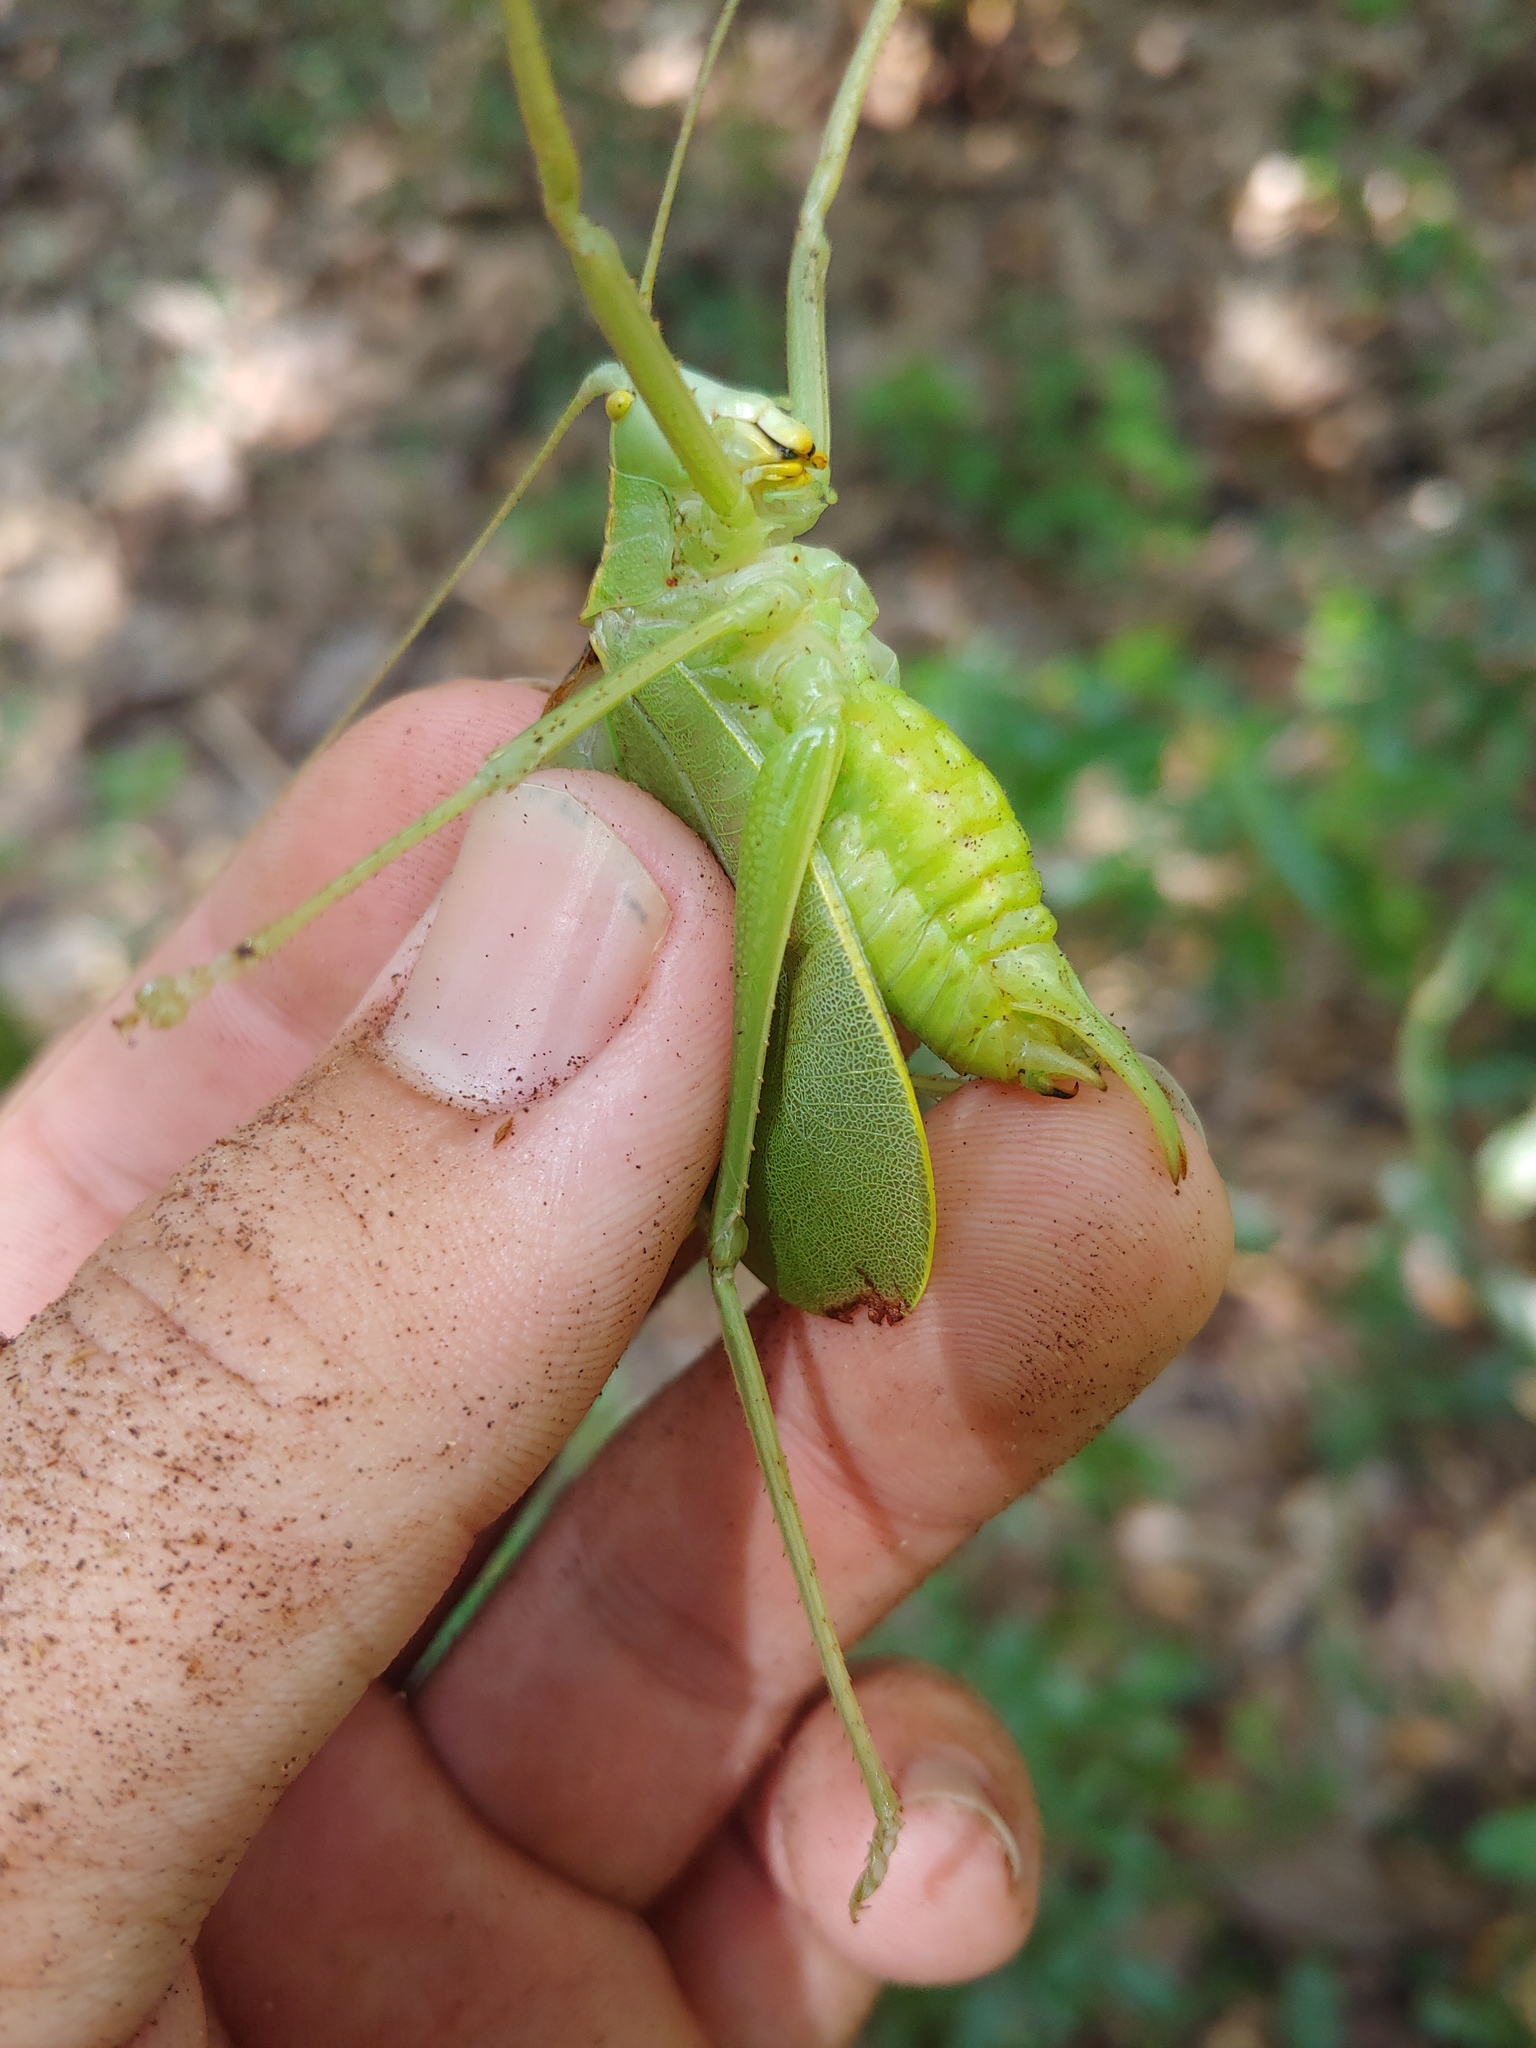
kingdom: Animalia
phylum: Arthropoda
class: Insecta
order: Orthoptera
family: Tettigoniidae
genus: Lea
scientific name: Lea floridensis
